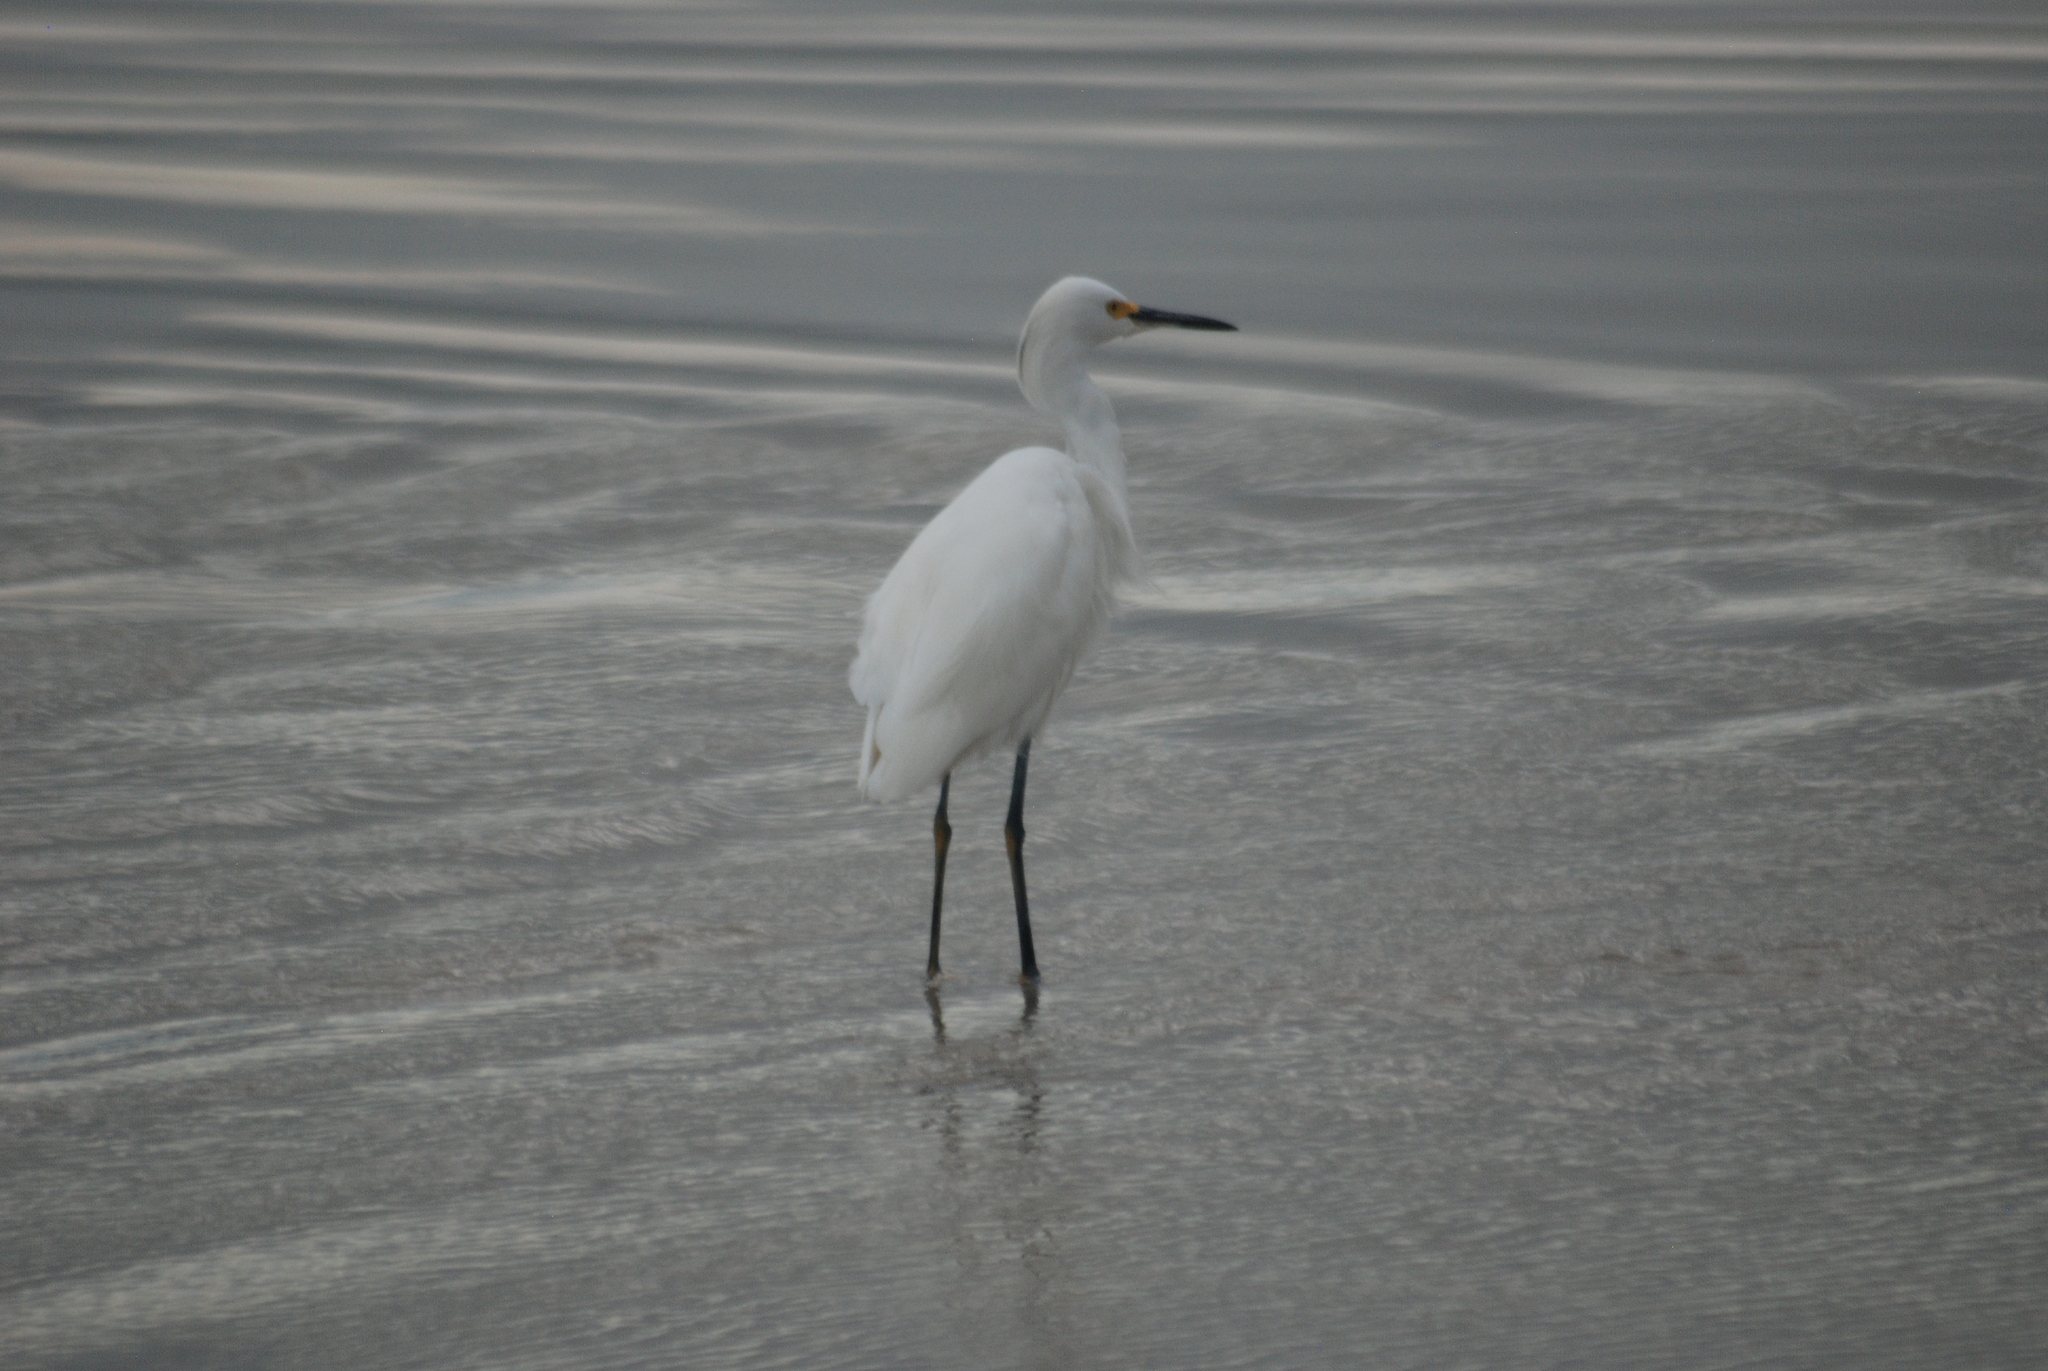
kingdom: Animalia
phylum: Chordata
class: Aves
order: Pelecaniformes
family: Ardeidae
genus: Egretta
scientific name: Egretta thula
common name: Snowy egret
